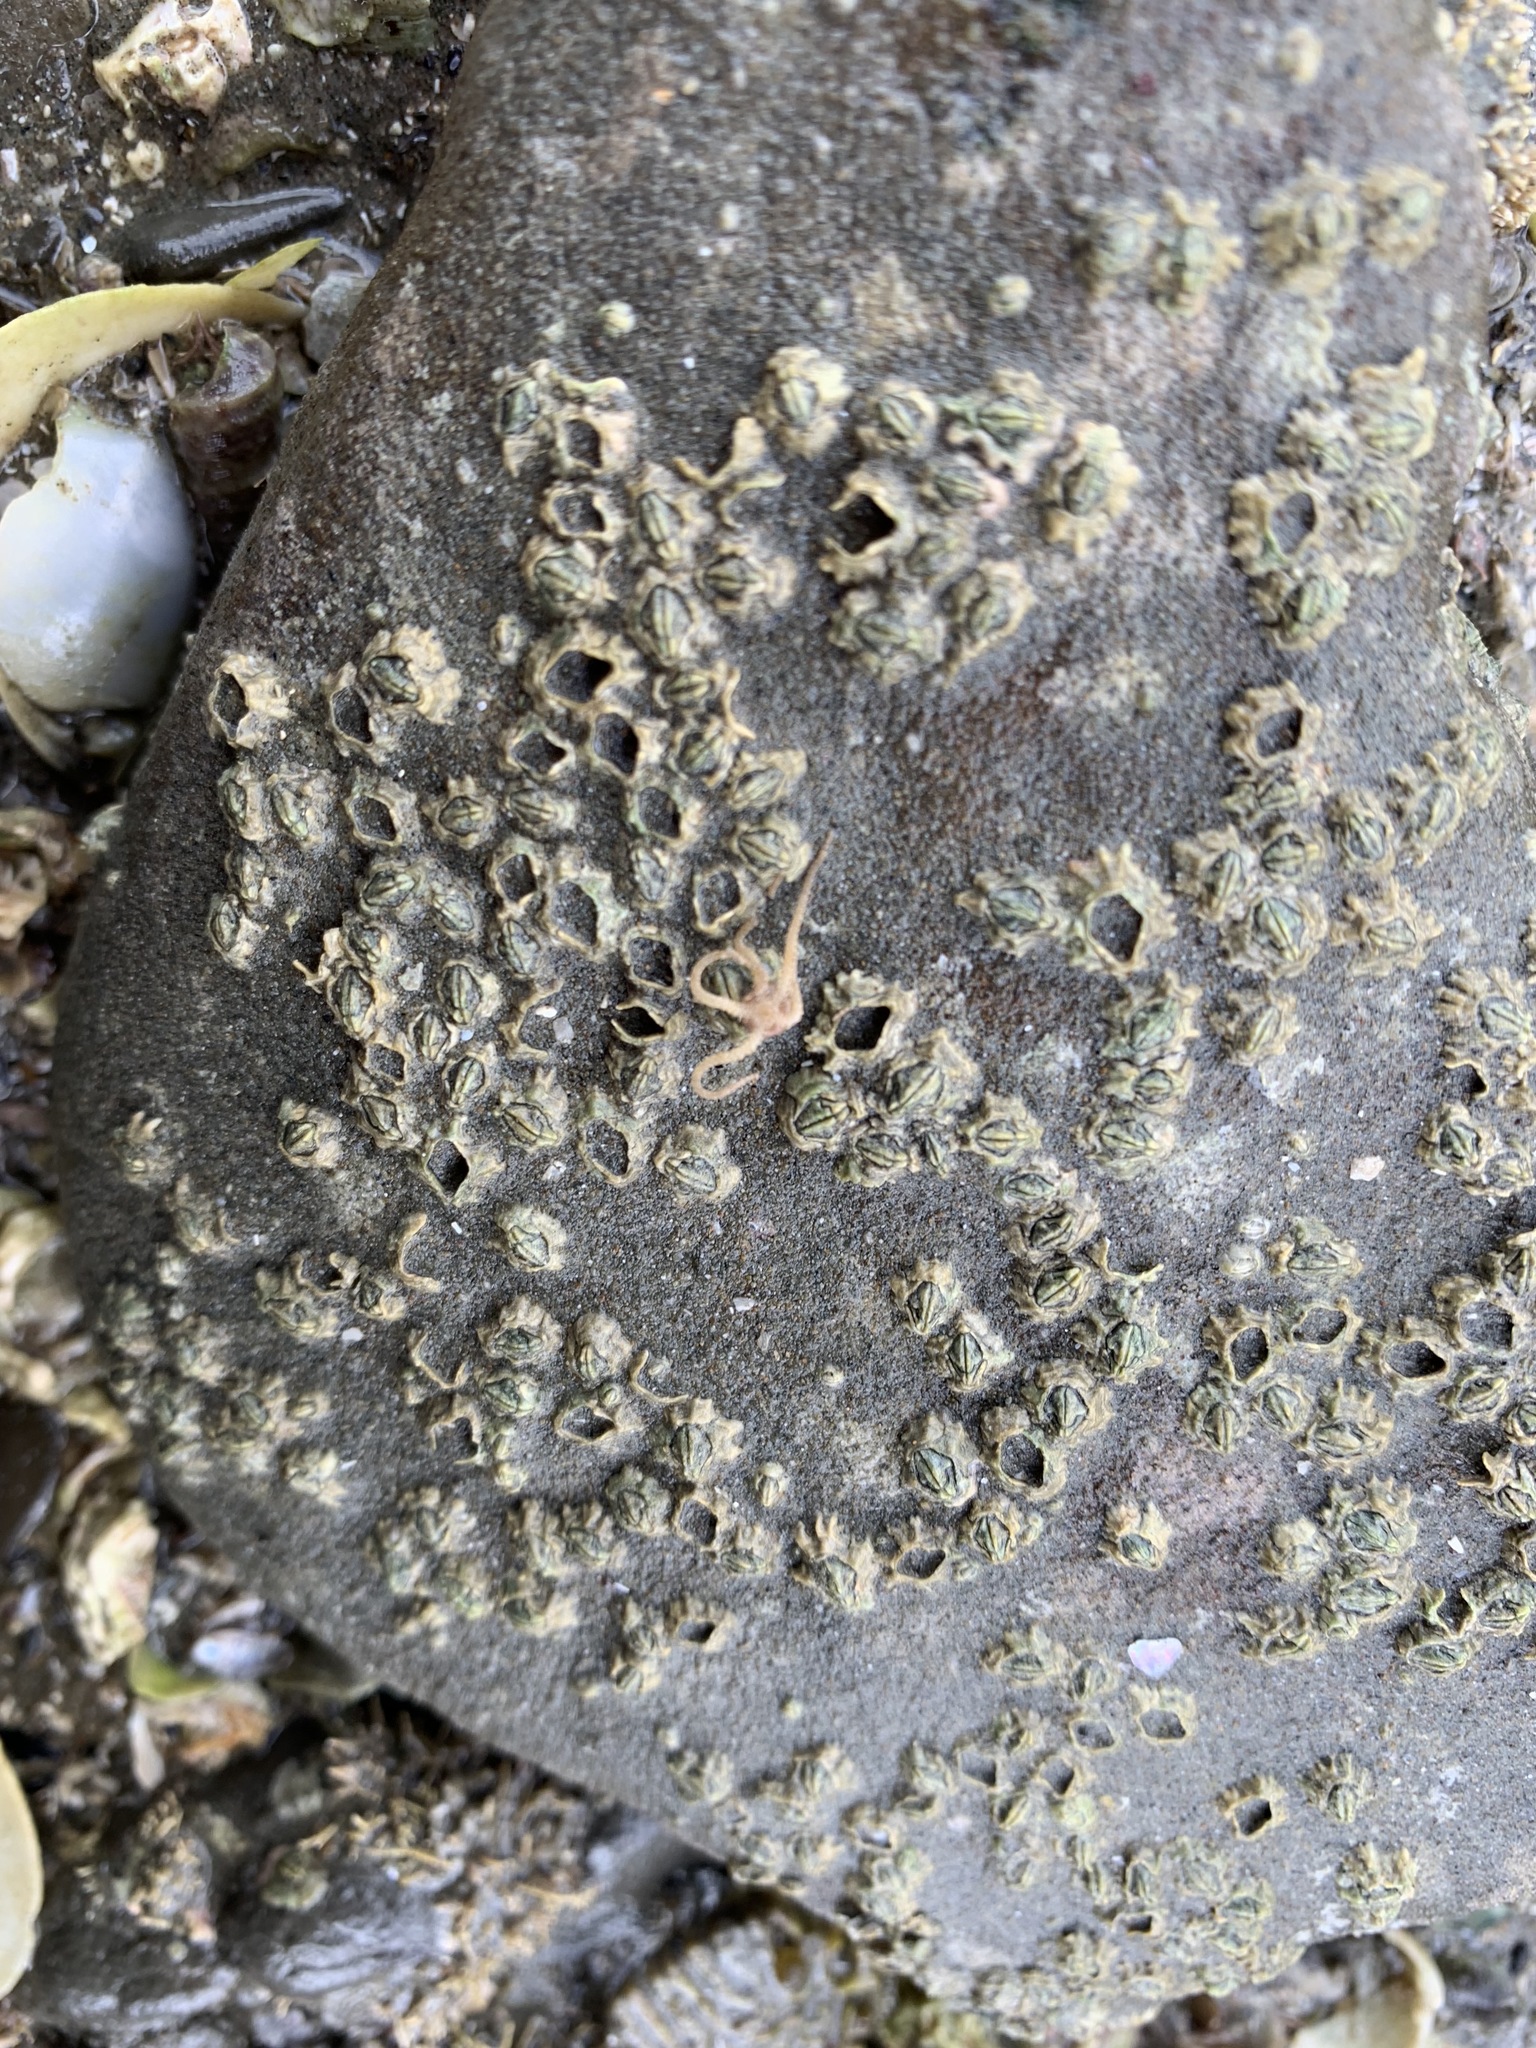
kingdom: Animalia
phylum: Arthropoda
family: Elminiidae
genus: Austrominius
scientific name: Austrominius modestus
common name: Australasian barnacle
